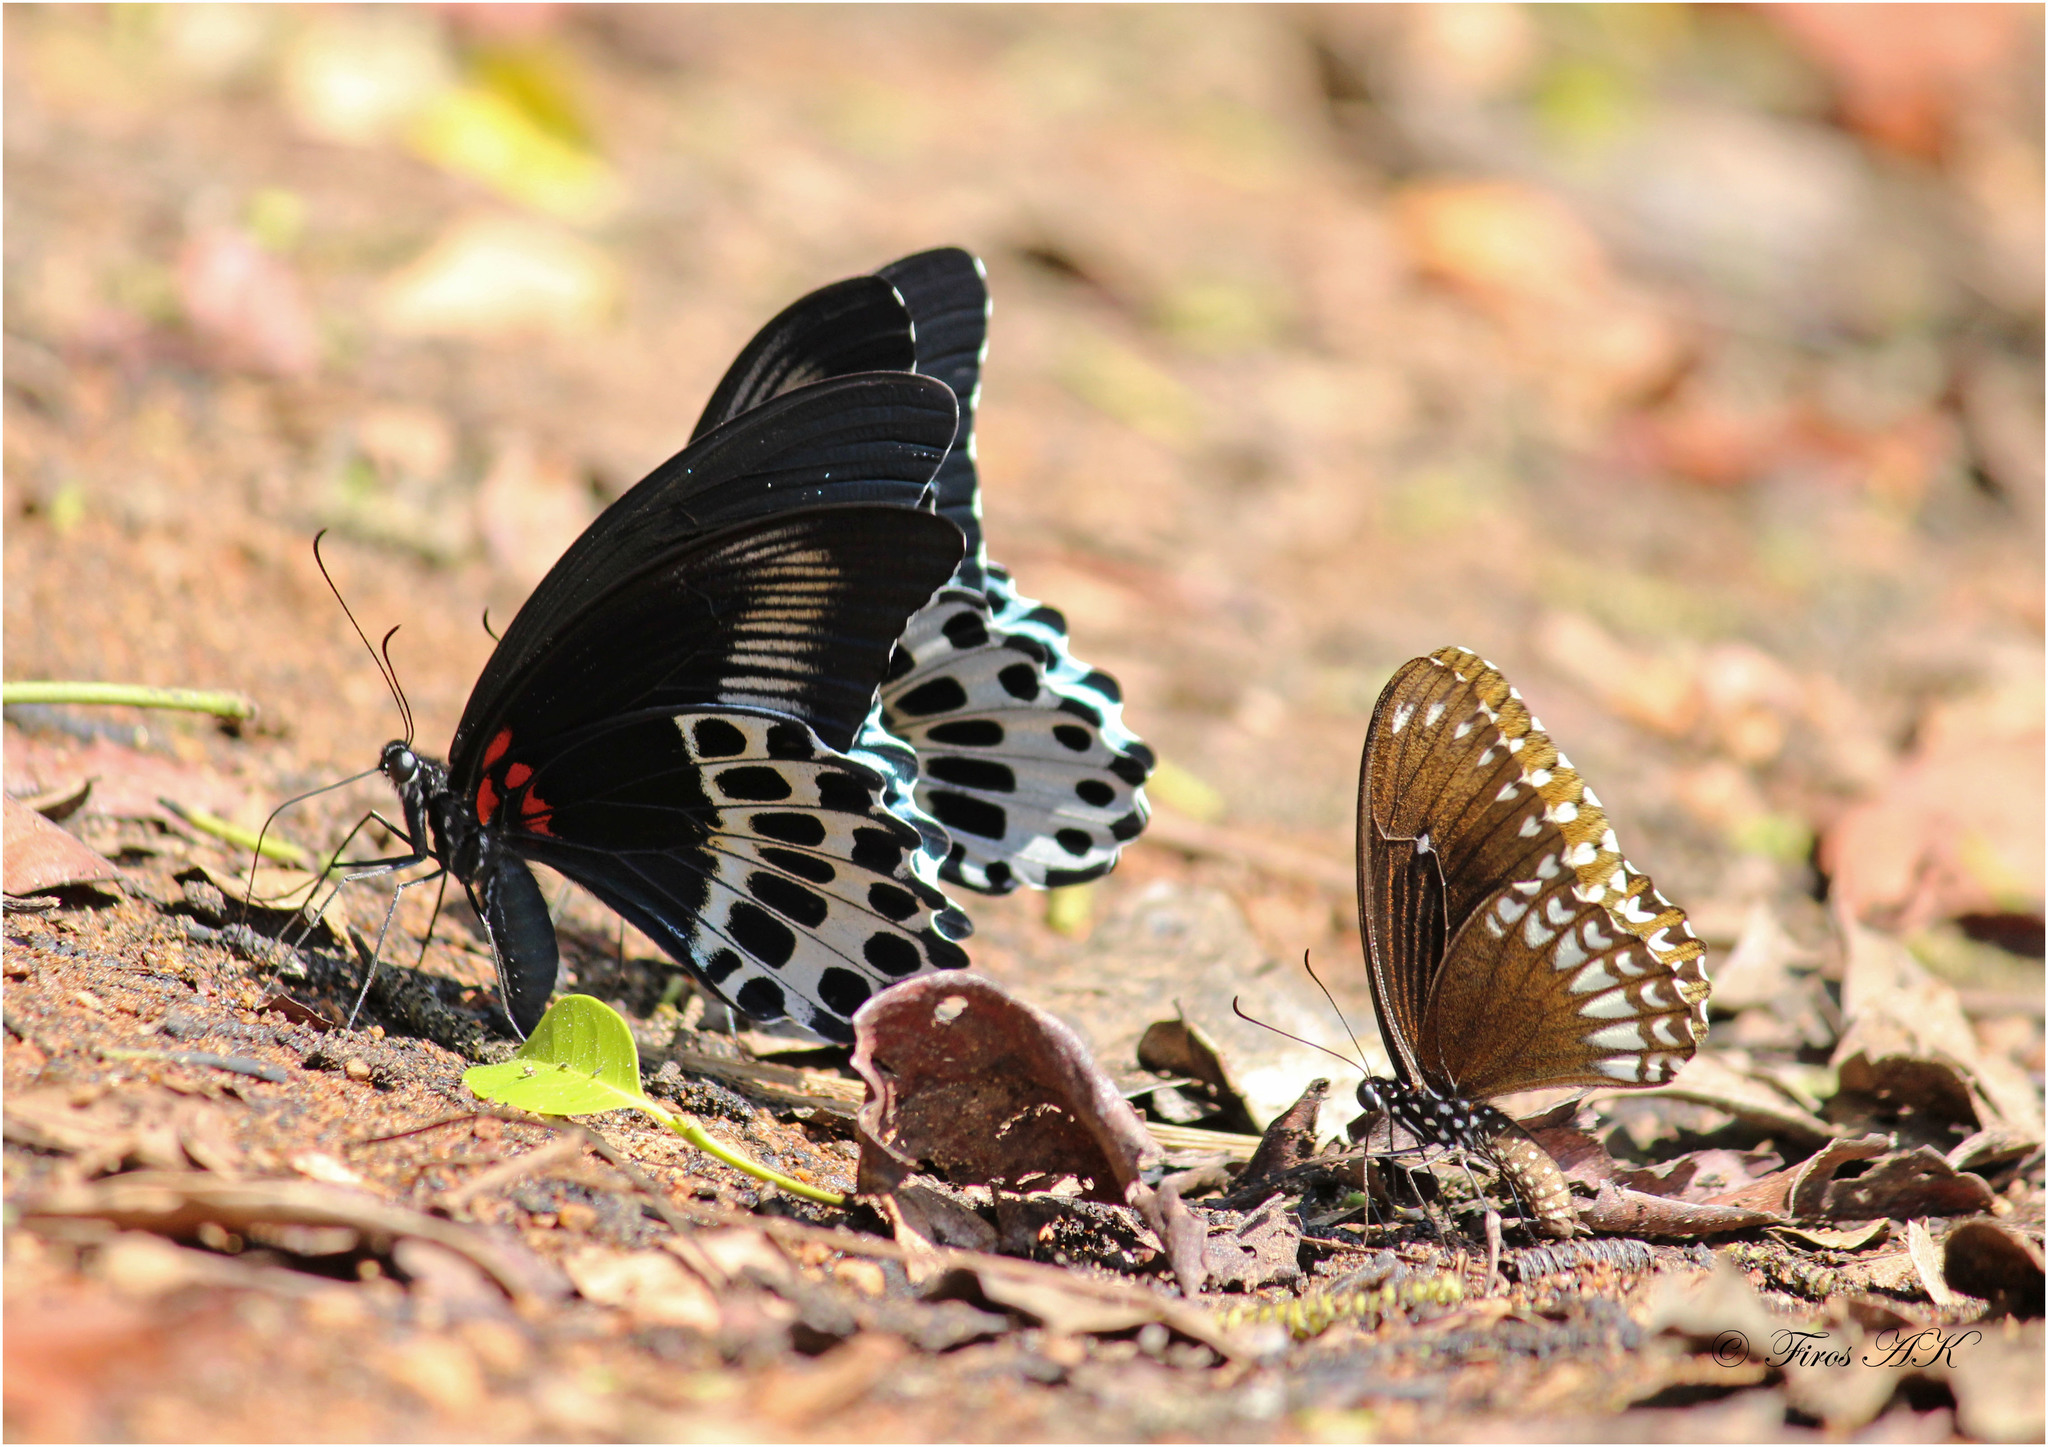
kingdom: Animalia
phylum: Arthropoda
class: Insecta
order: Lepidoptera
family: Papilionidae
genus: Papilio
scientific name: Papilio memnon
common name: Great mormon
